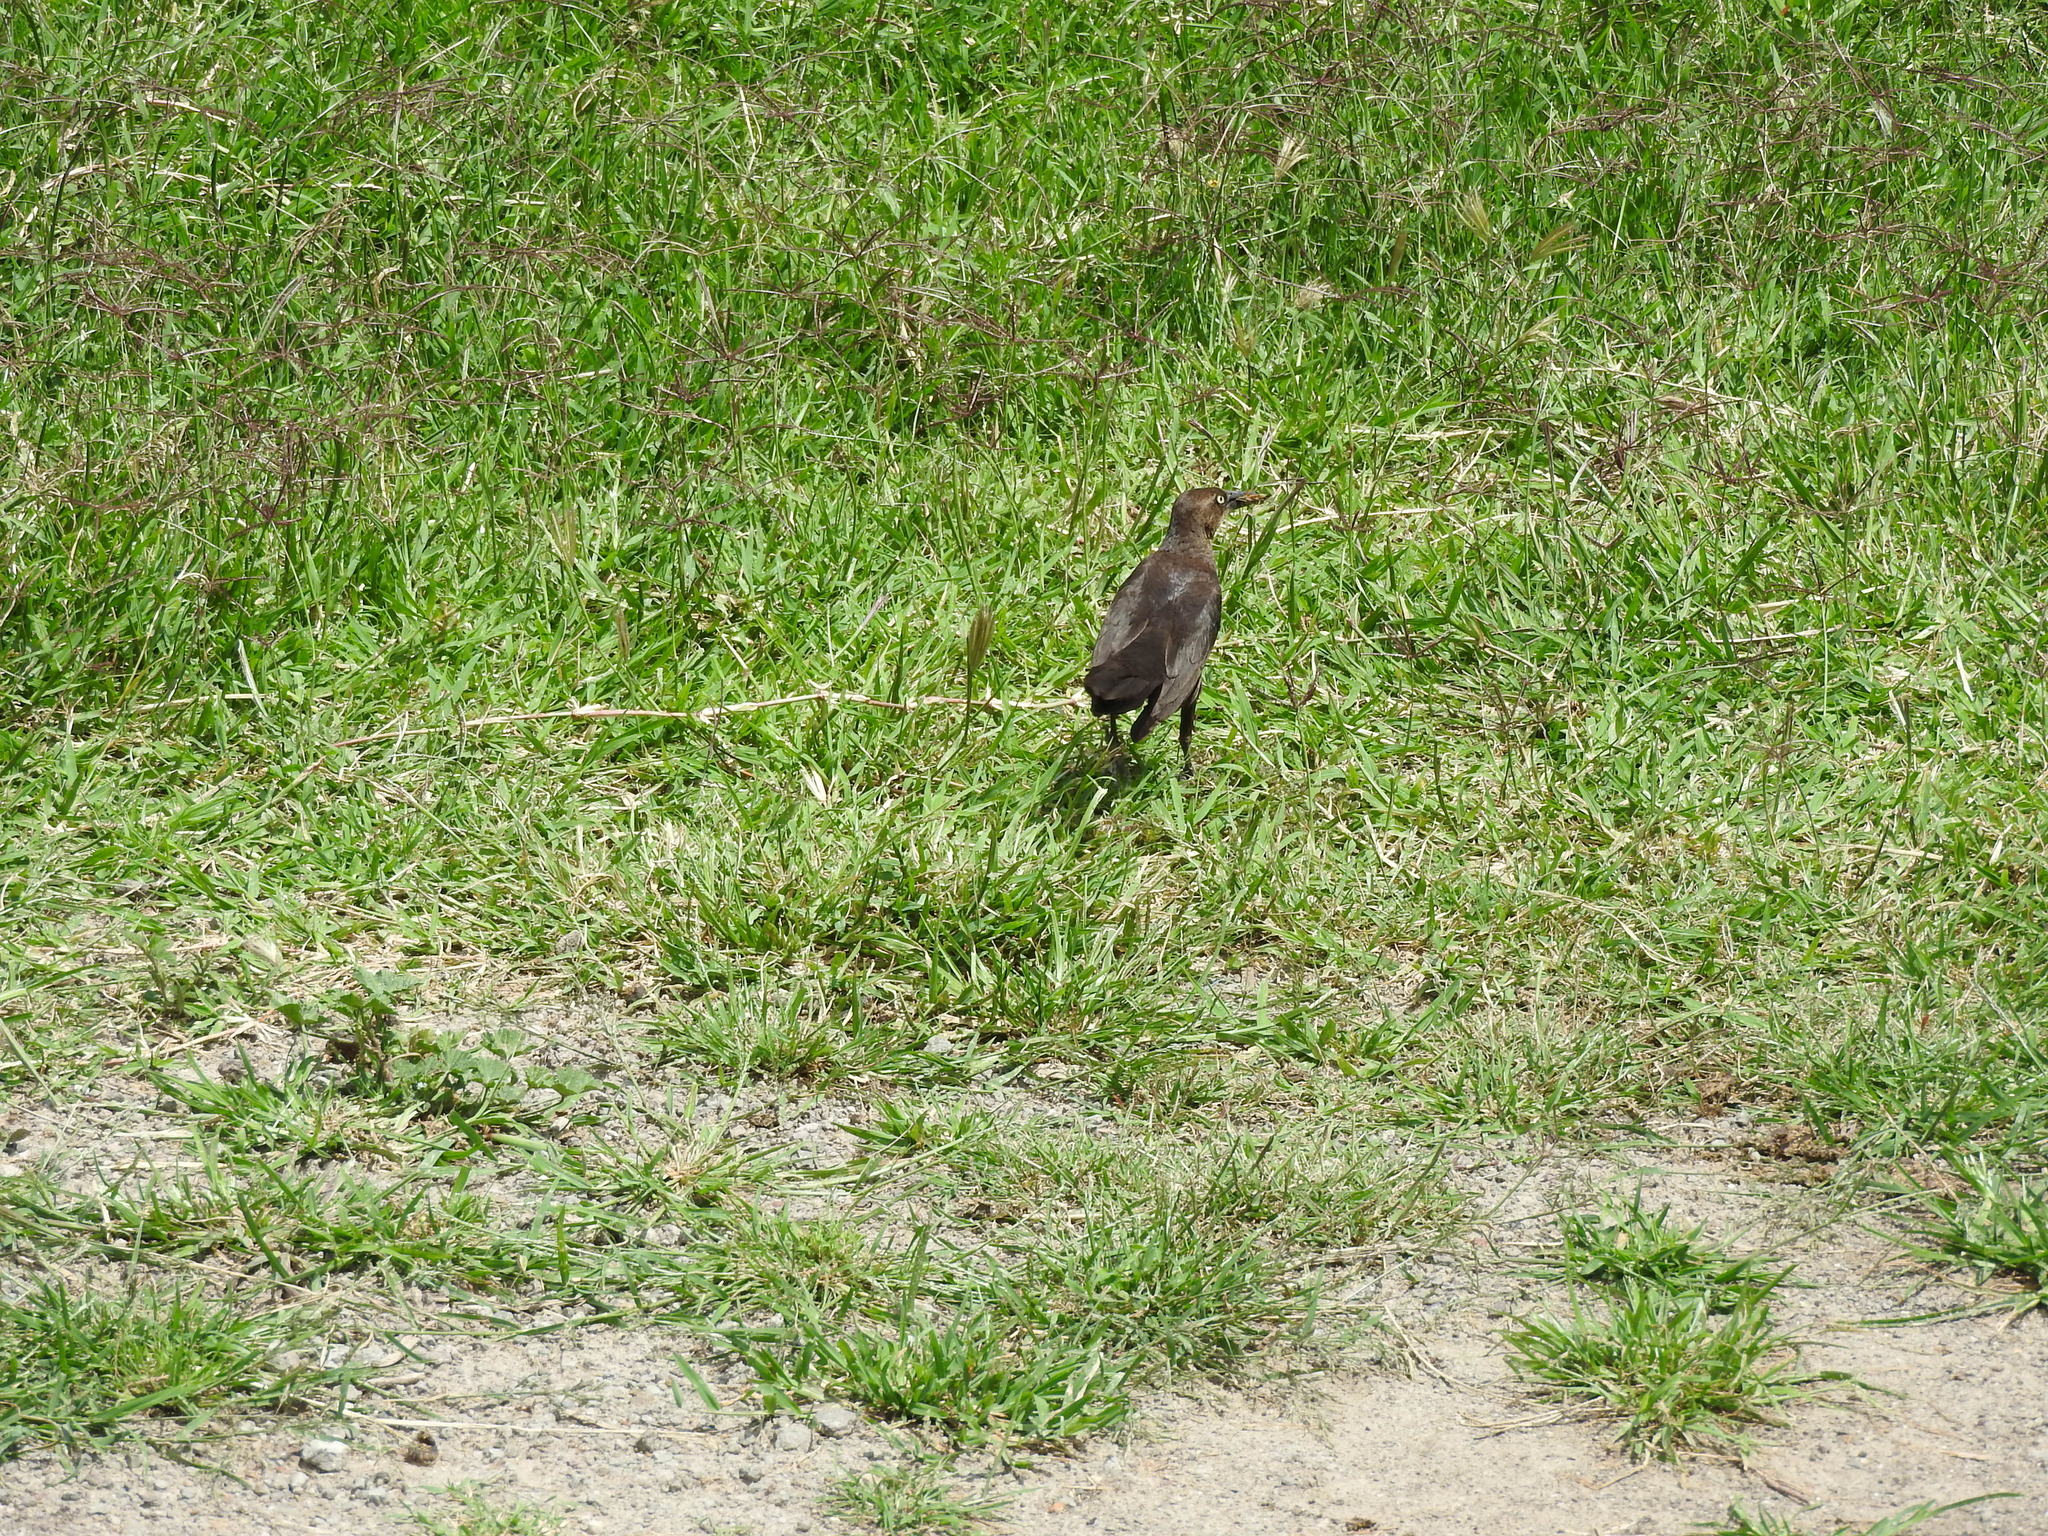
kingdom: Animalia
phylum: Chordata
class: Aves
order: Passeriformes
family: Icteridae
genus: Quiscalus
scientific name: Quiscalus mexicanus
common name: Great-tailed grackle
